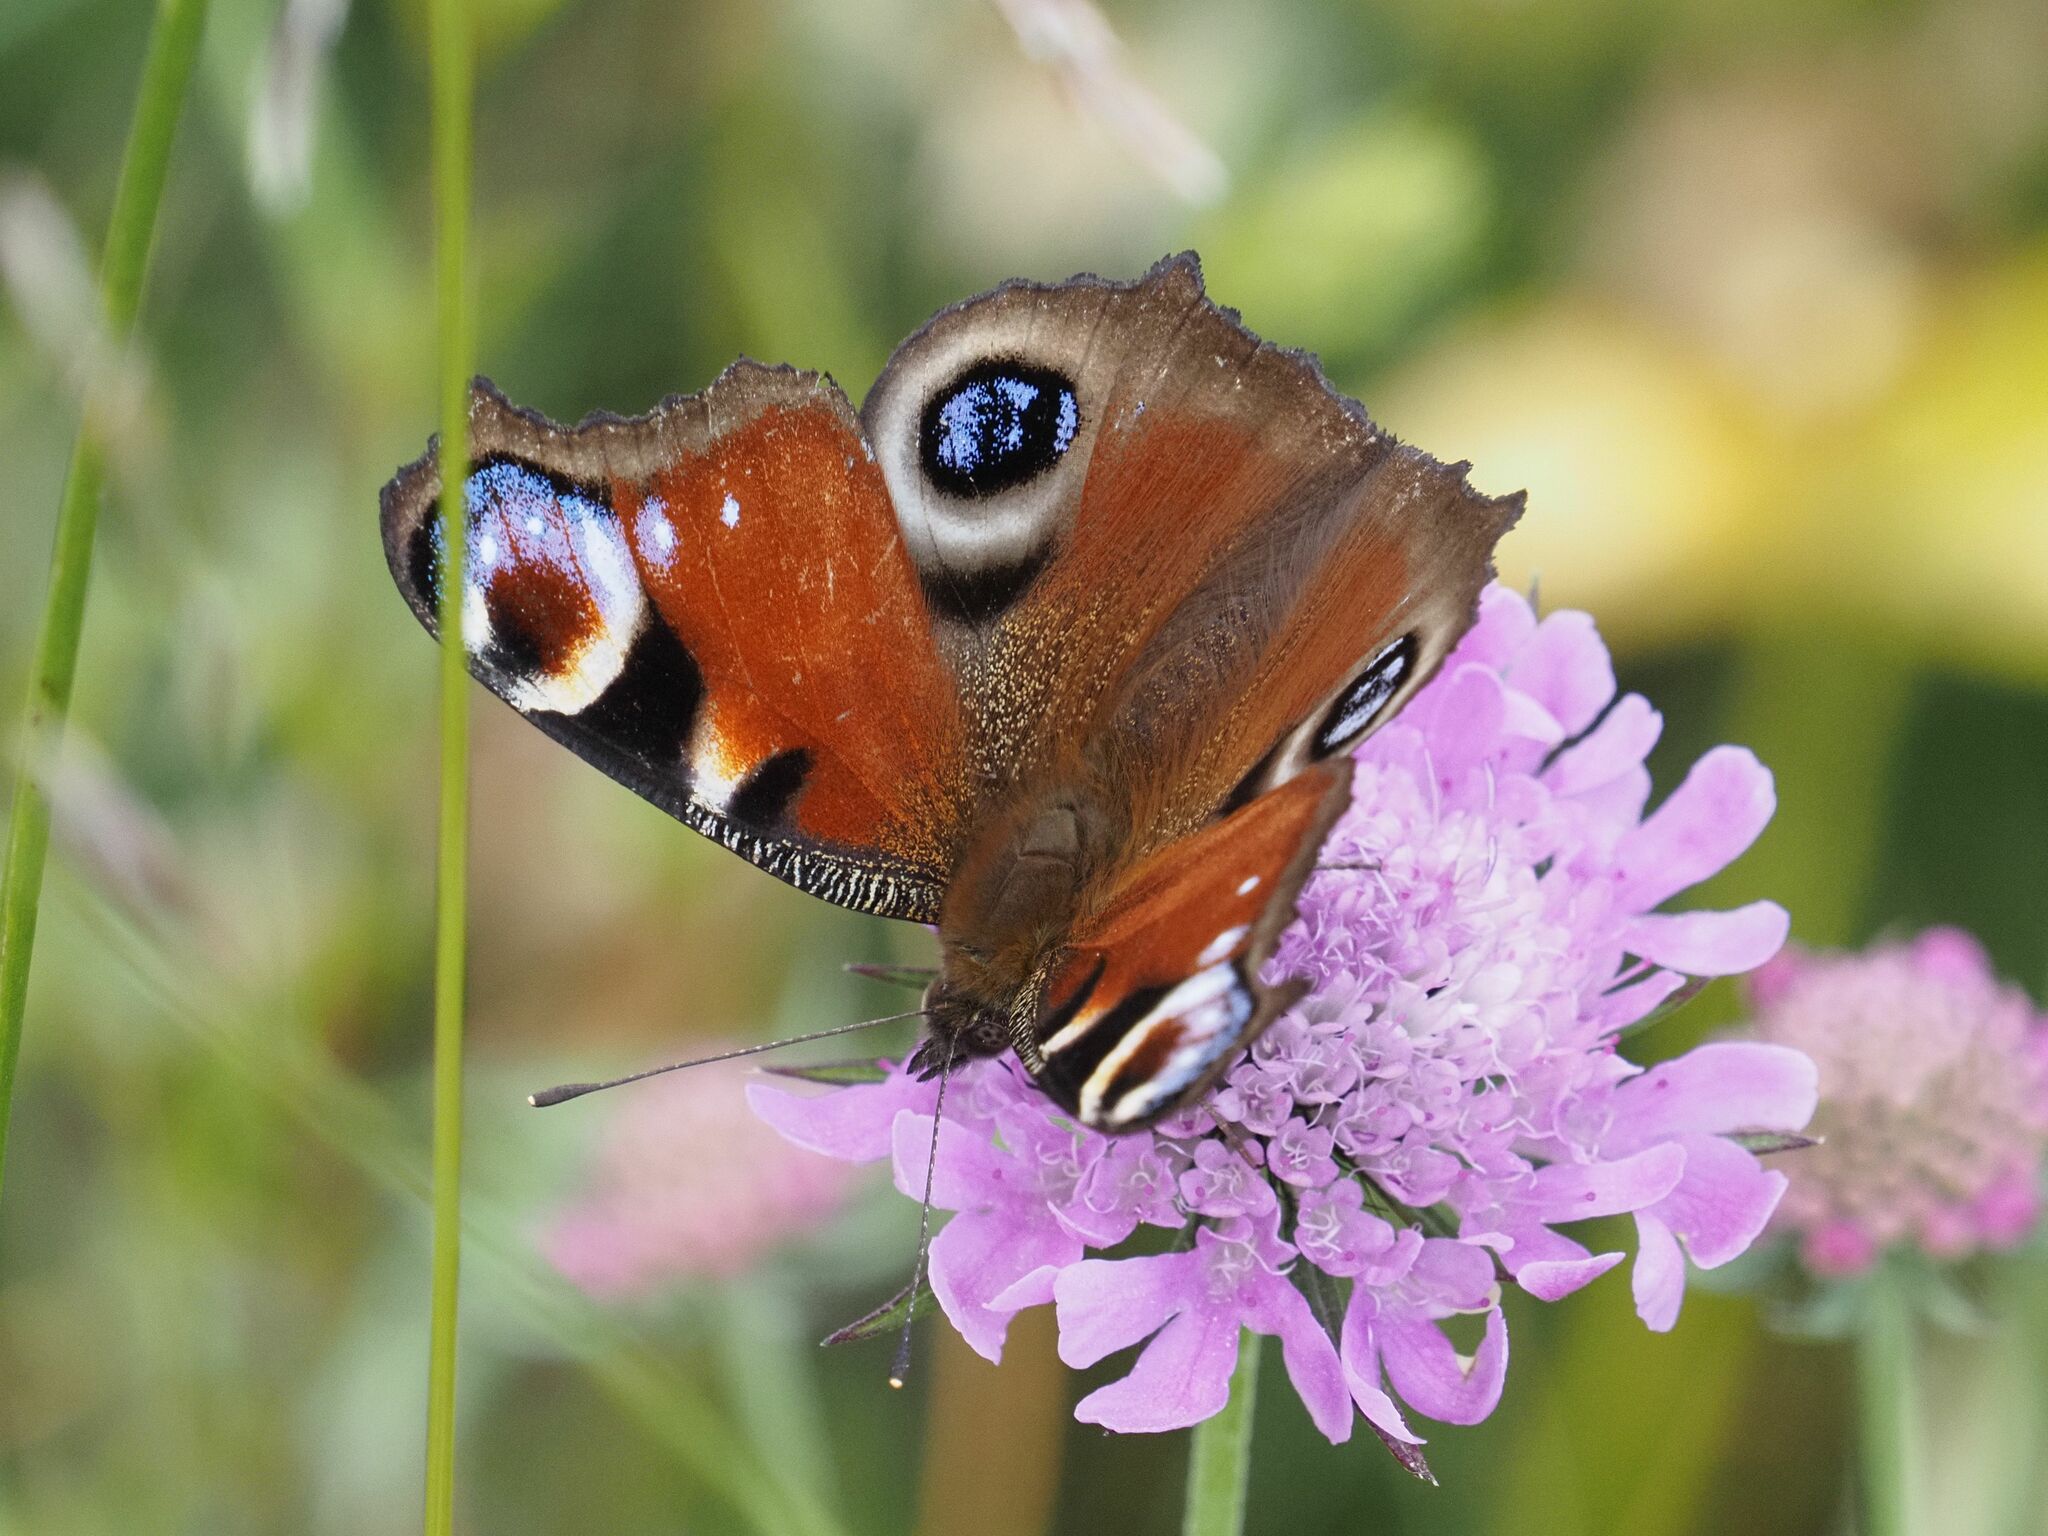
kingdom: Animalia
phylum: Arthropoda
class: Insecta
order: Lepidoptera
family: Nymphalidae
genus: Aglais
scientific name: Aglais io
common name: Peacock
